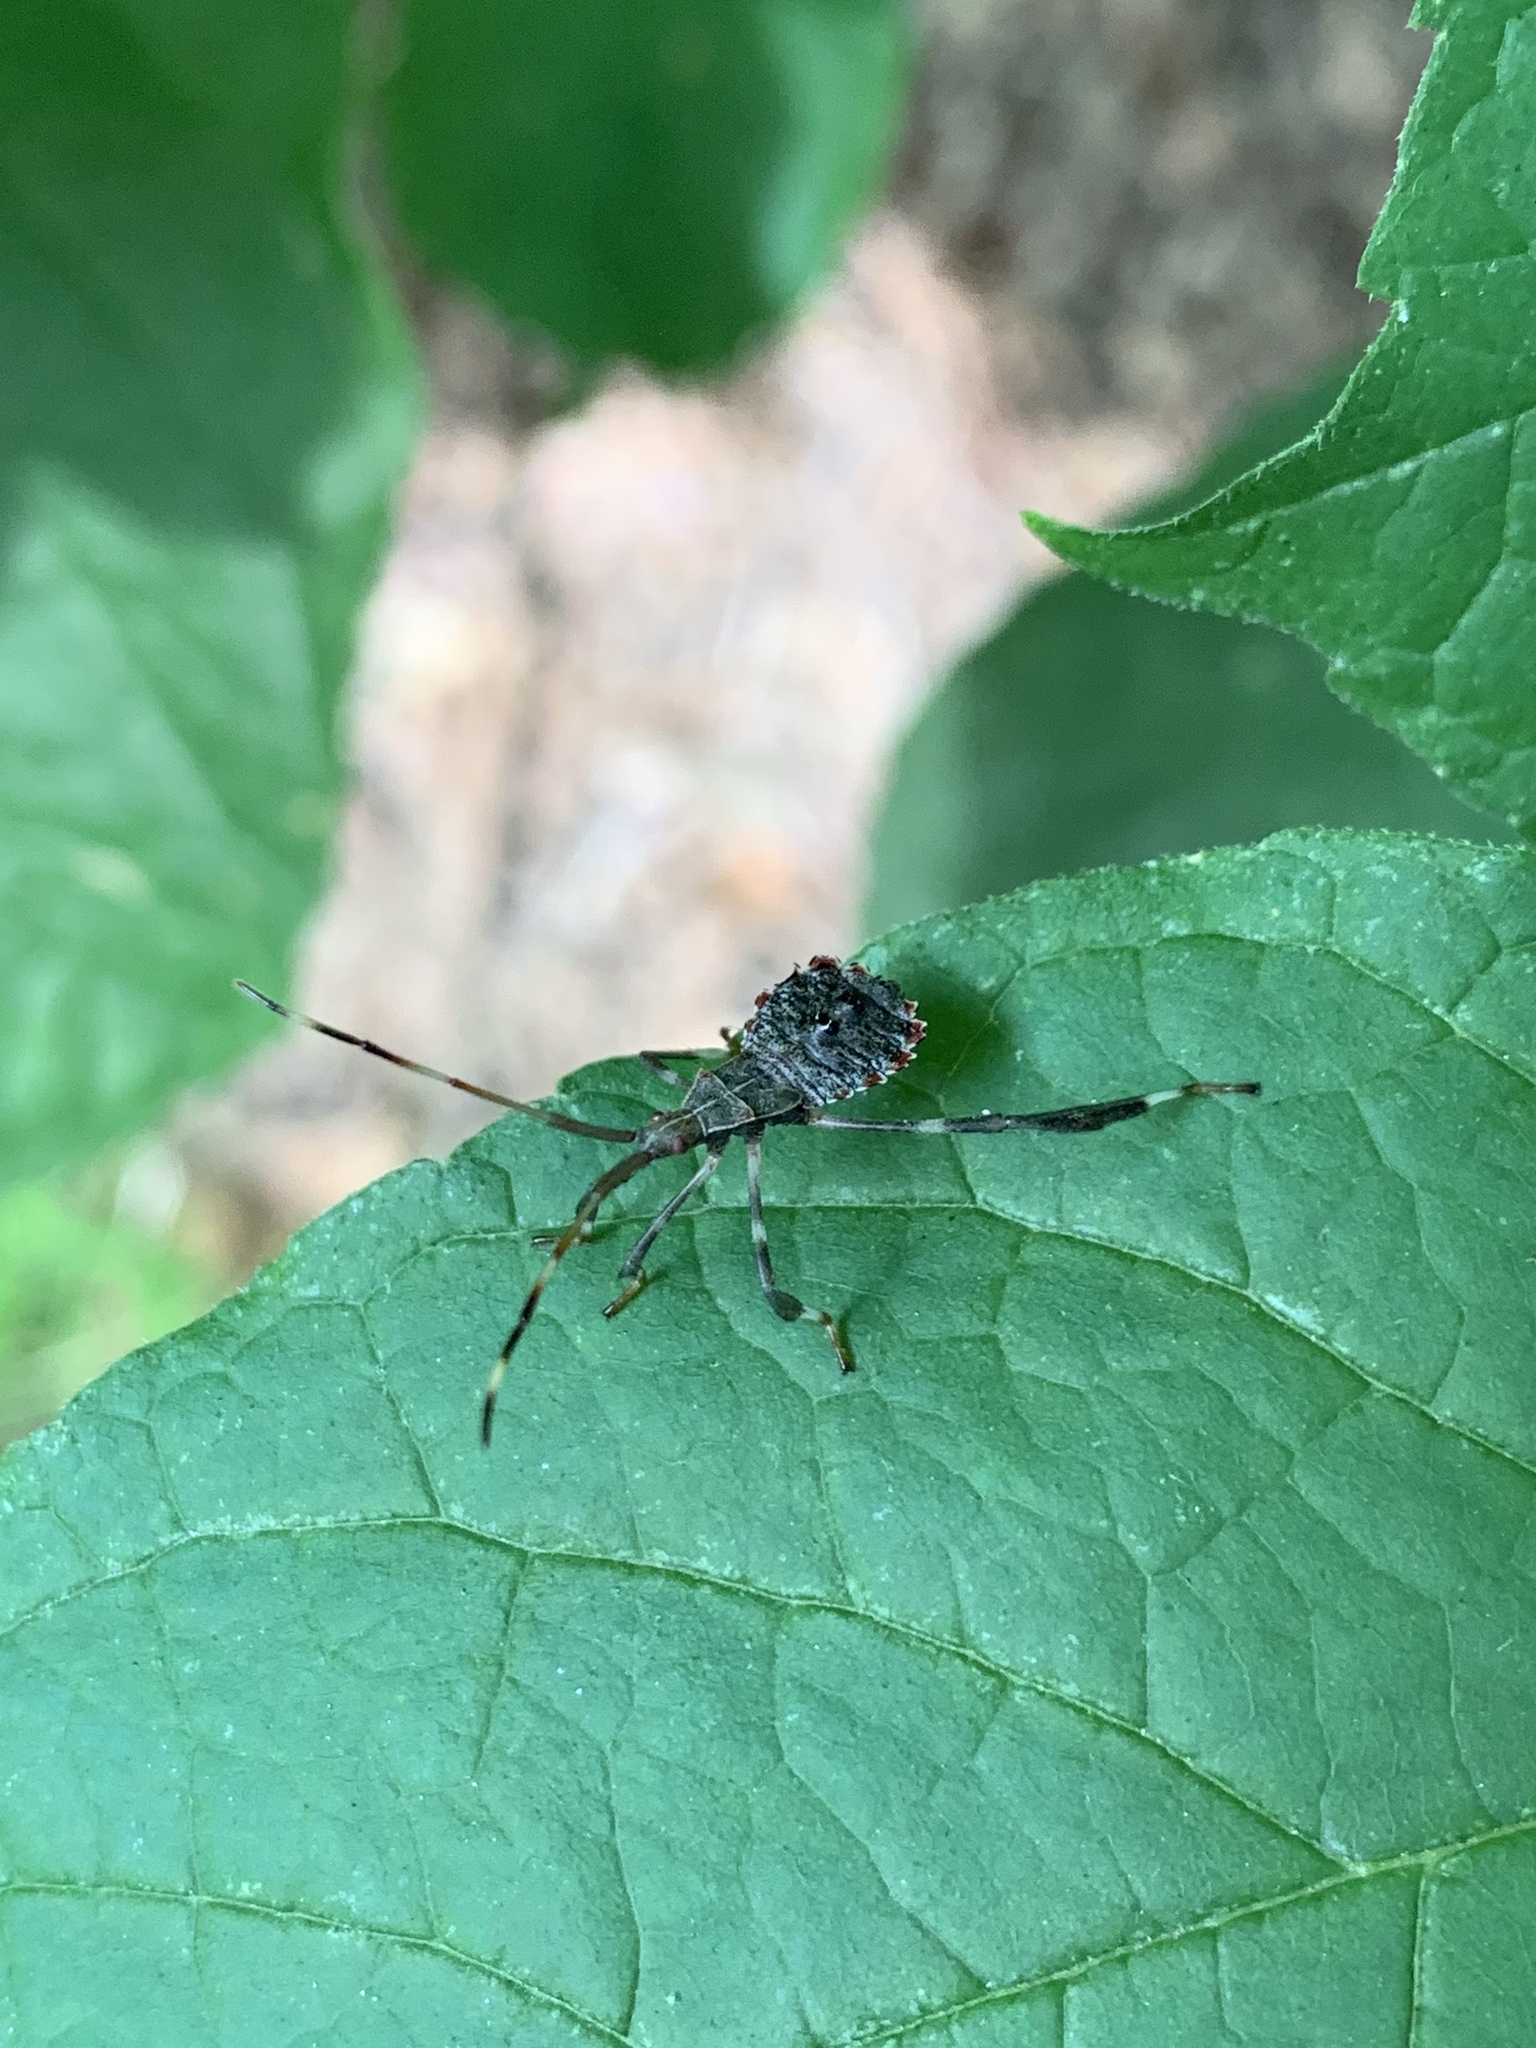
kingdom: Animalia
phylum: Arthropoda
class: Insecta
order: Hemiptera
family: Coreidae
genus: Acanthocephala
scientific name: Acanthocephala terminalis
